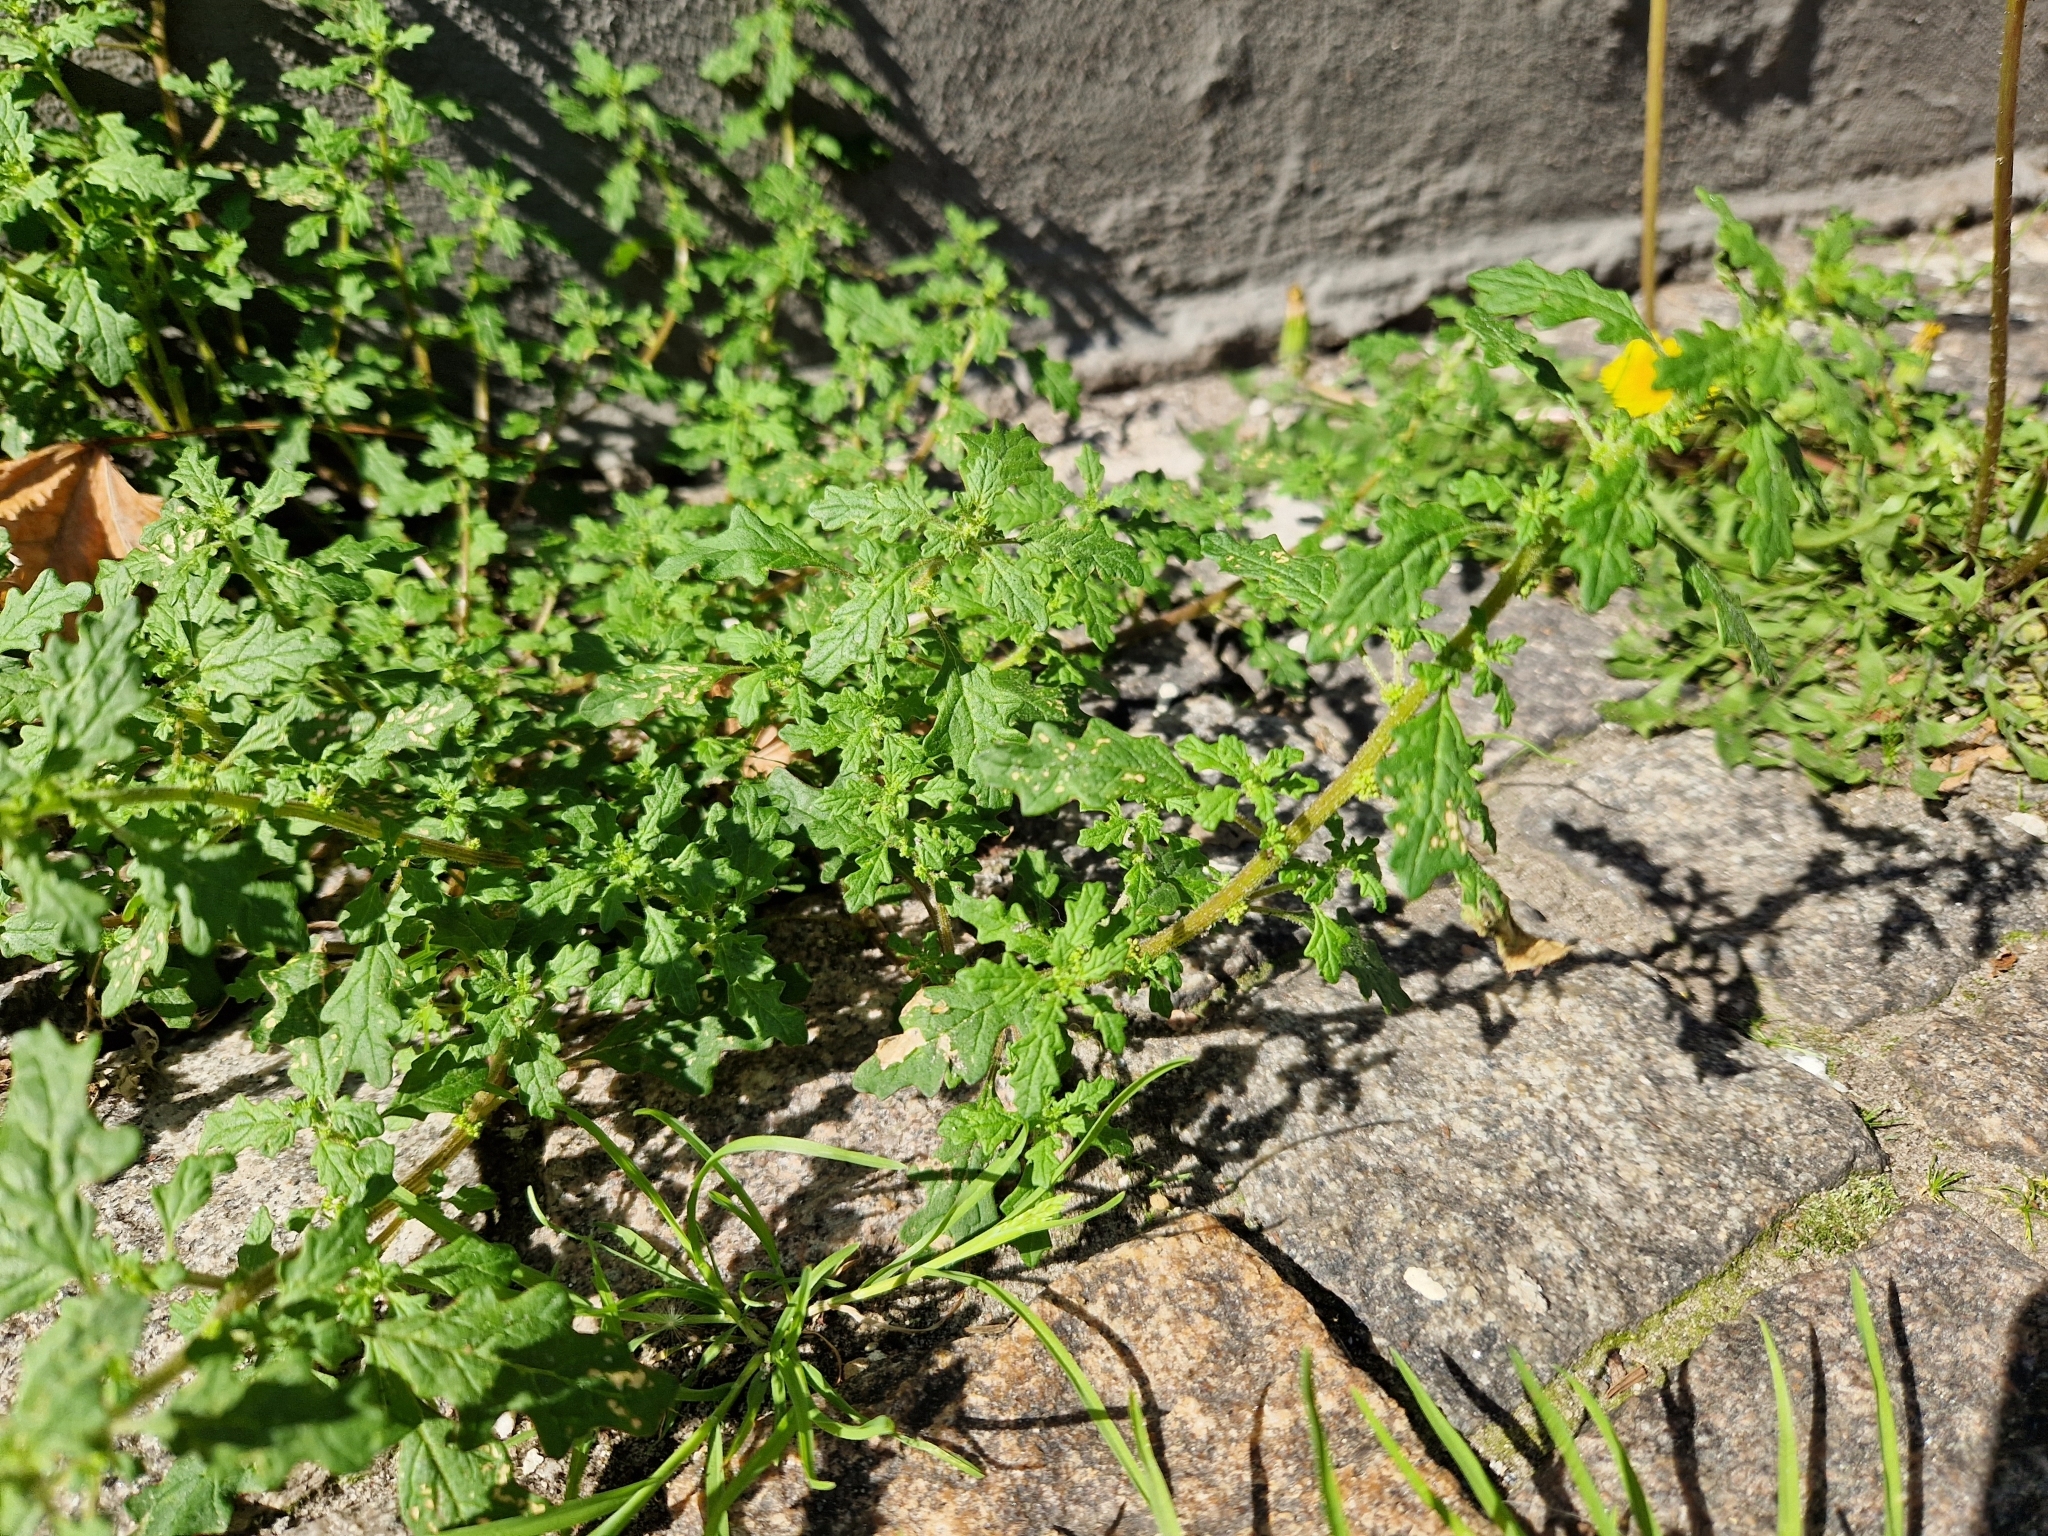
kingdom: Plantae
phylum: Tracheophyta
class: Magnoliopsida
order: Caryophyllales
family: Amaranthaceae
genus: Dysphania
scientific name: Dysphania pumilio
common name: Clammy goosefoot
